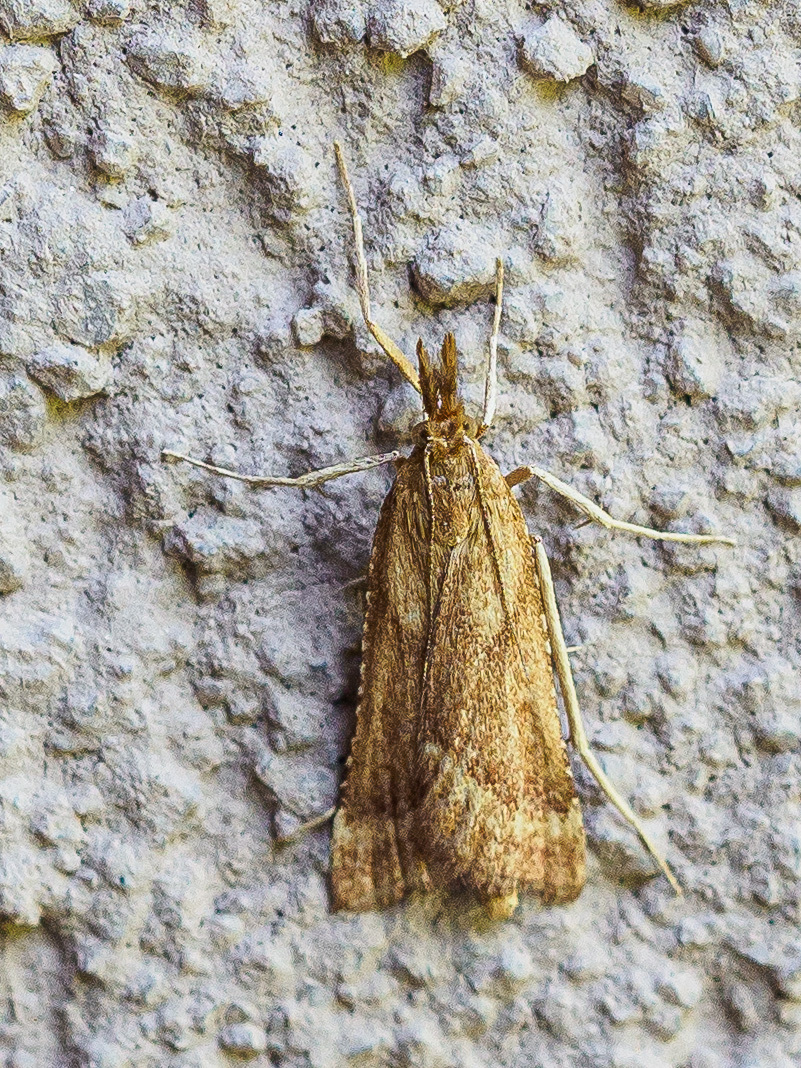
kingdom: Animalia
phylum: Arthropoda
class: Insecta
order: Lepidoptera
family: Pyralidae
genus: Synaphe
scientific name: Synaphe punctalis
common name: Long-legged tabby
